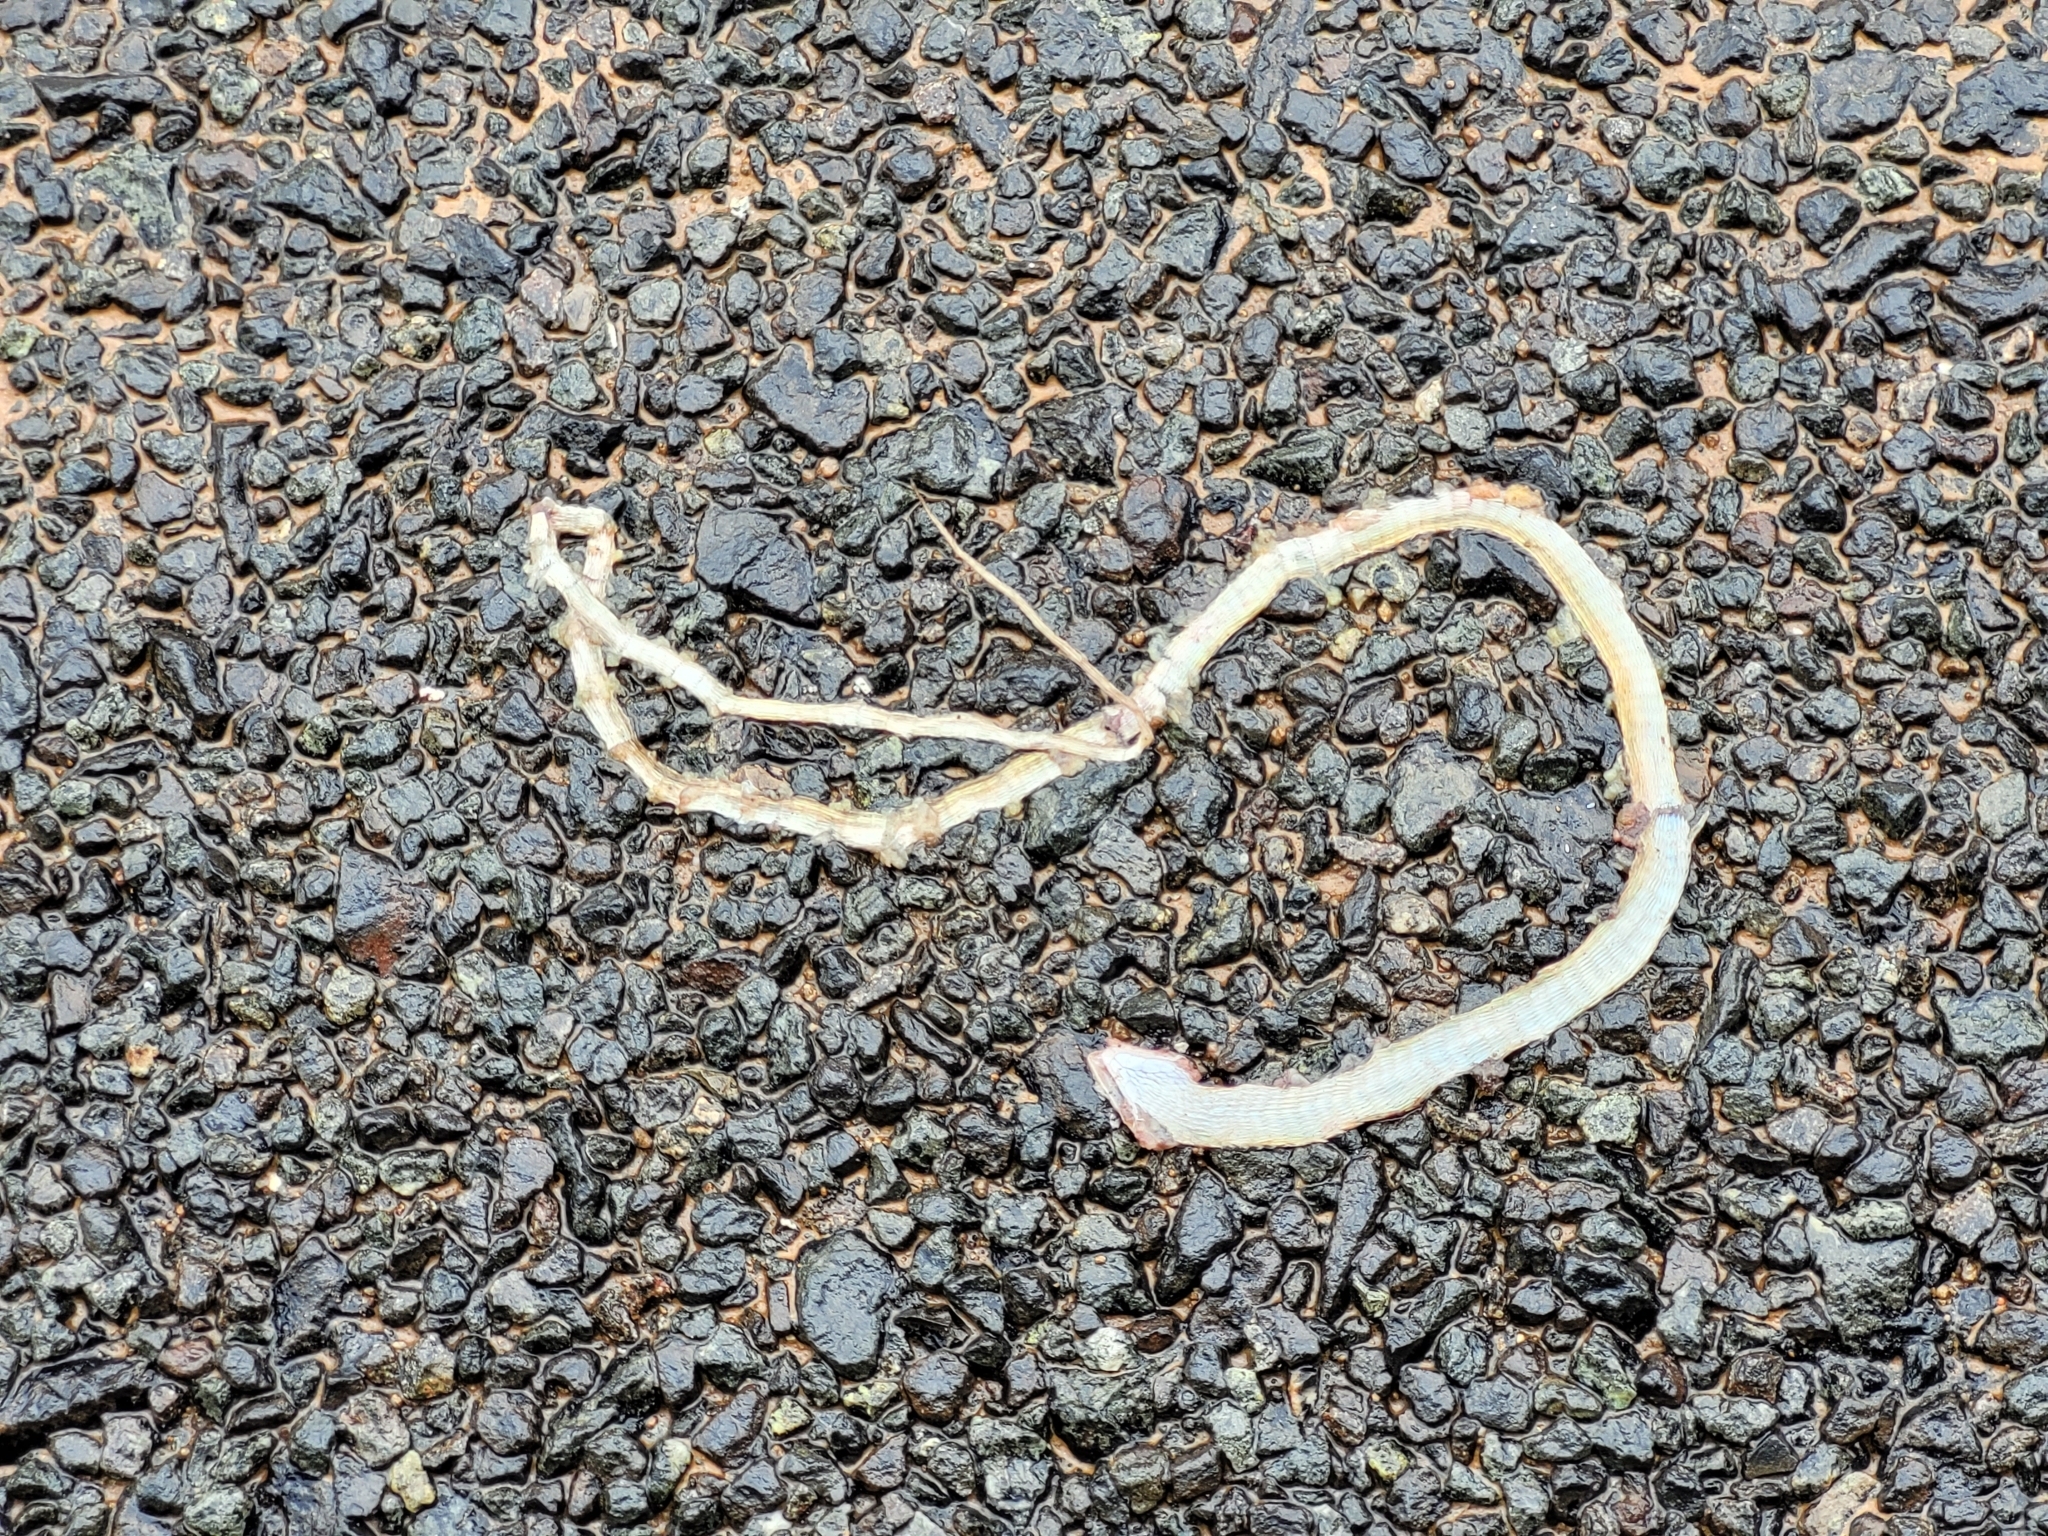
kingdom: Animalia
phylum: Chordata
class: Squamata
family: Cordylidae
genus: Chamaesaura
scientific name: Chamaesaura macrolepis
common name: Large-scaled grass lizard
